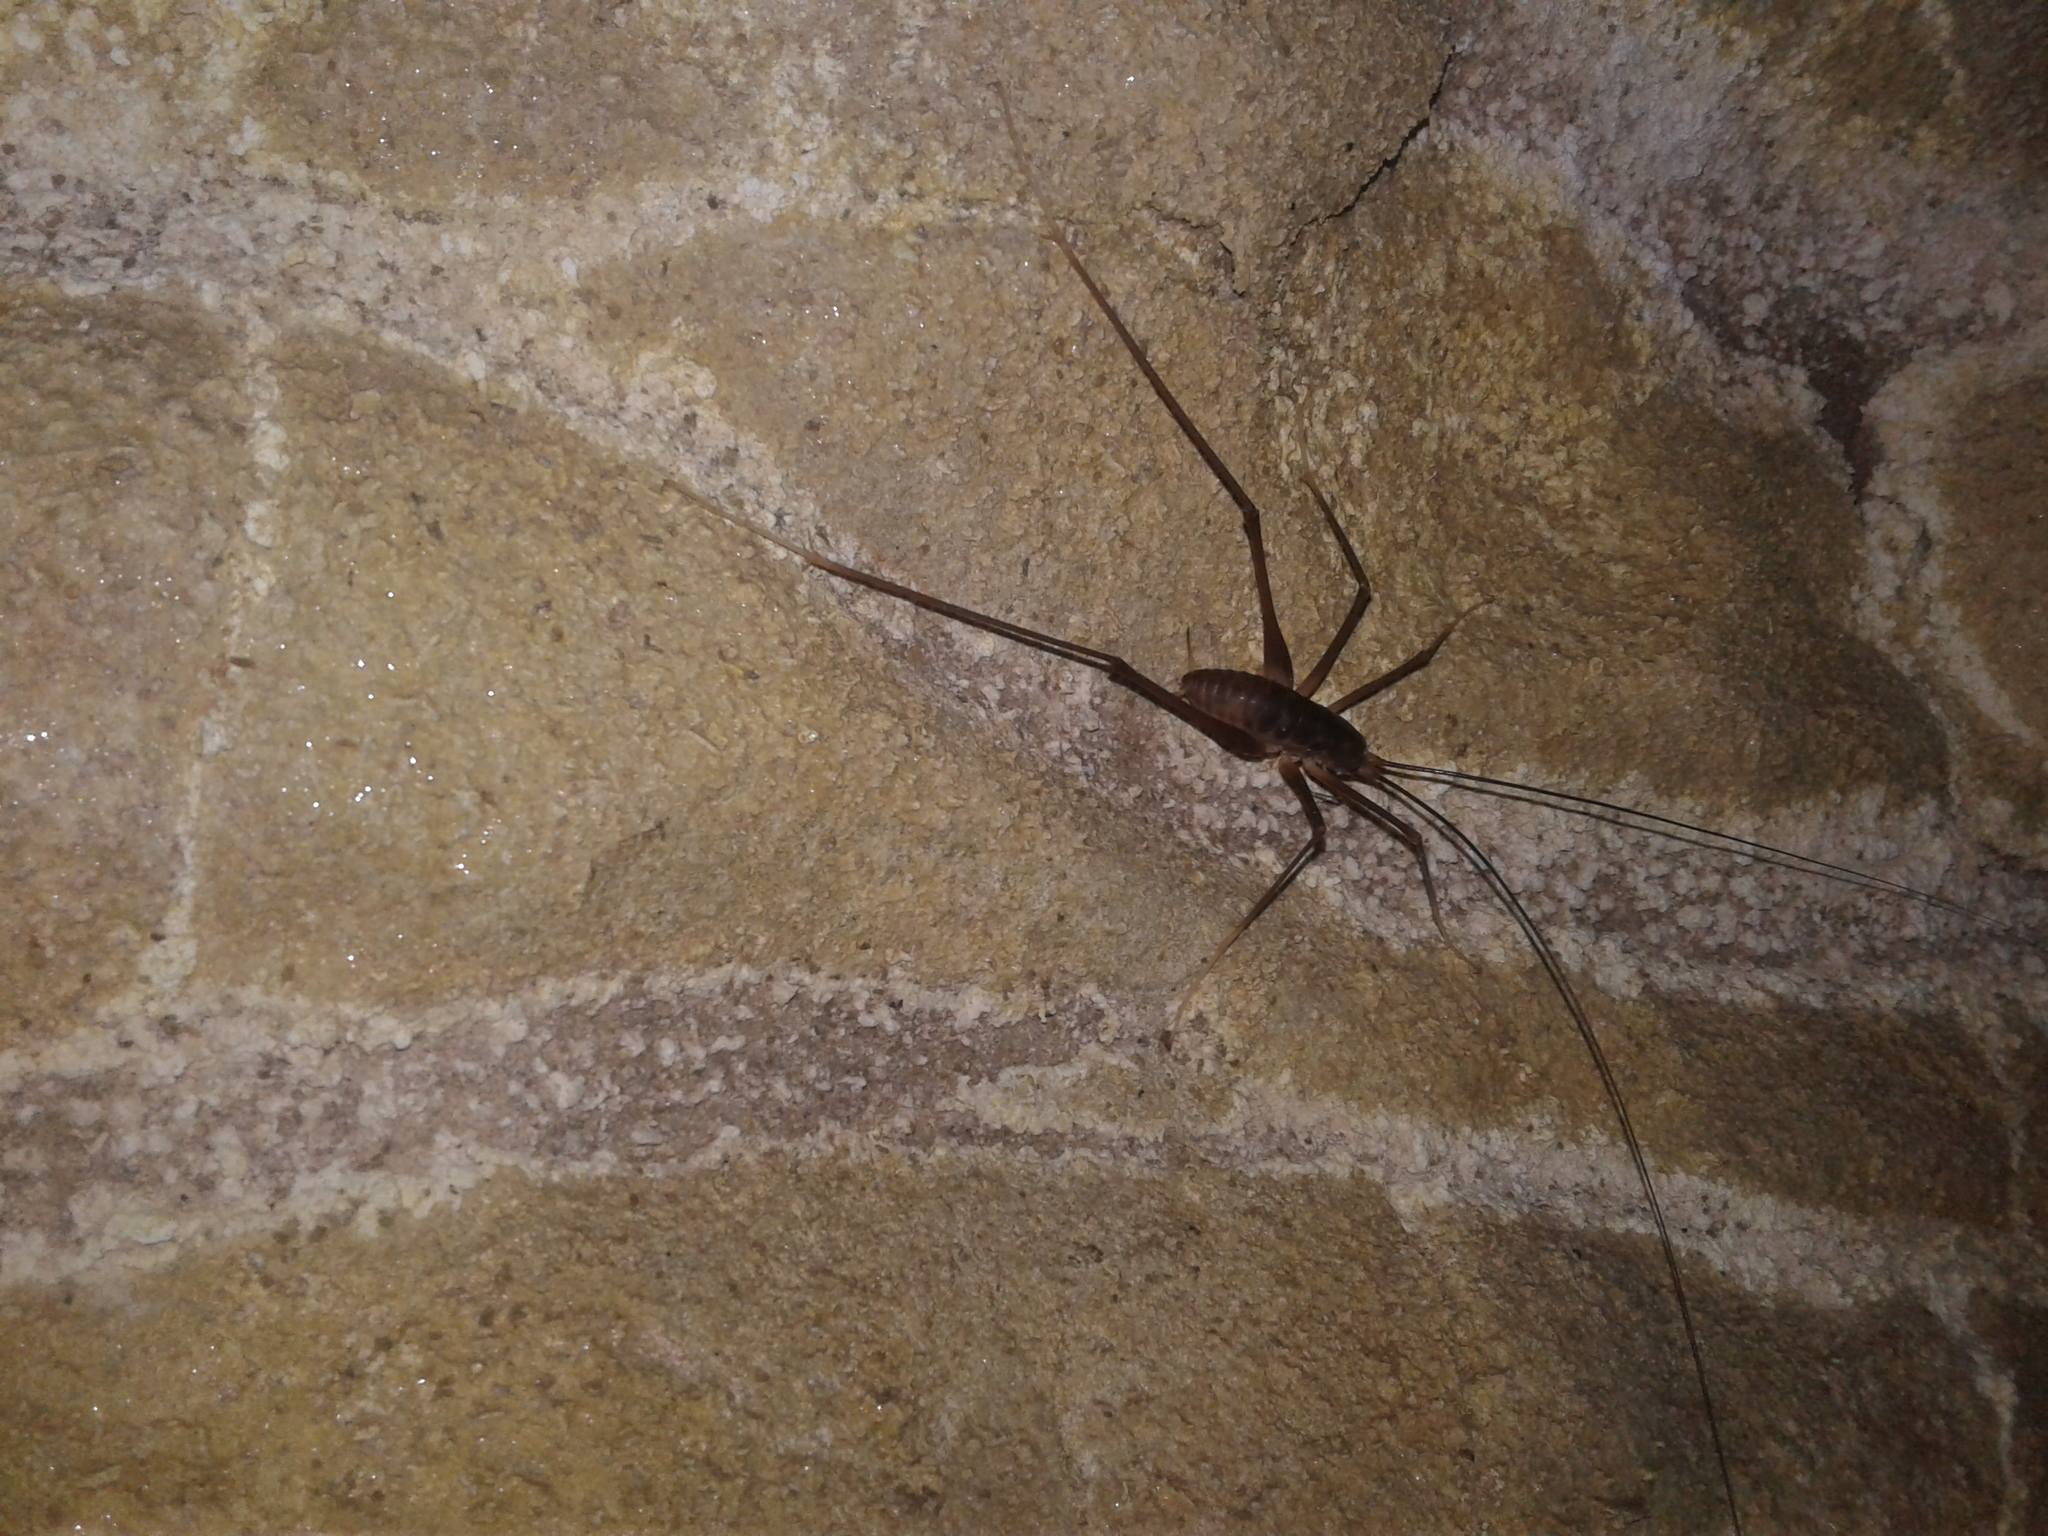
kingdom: Animalia
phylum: Arthropoda
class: Insecta
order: Orthoptera
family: Rhaphidophoridae
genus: Macropathus
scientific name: Macropathus filifer
